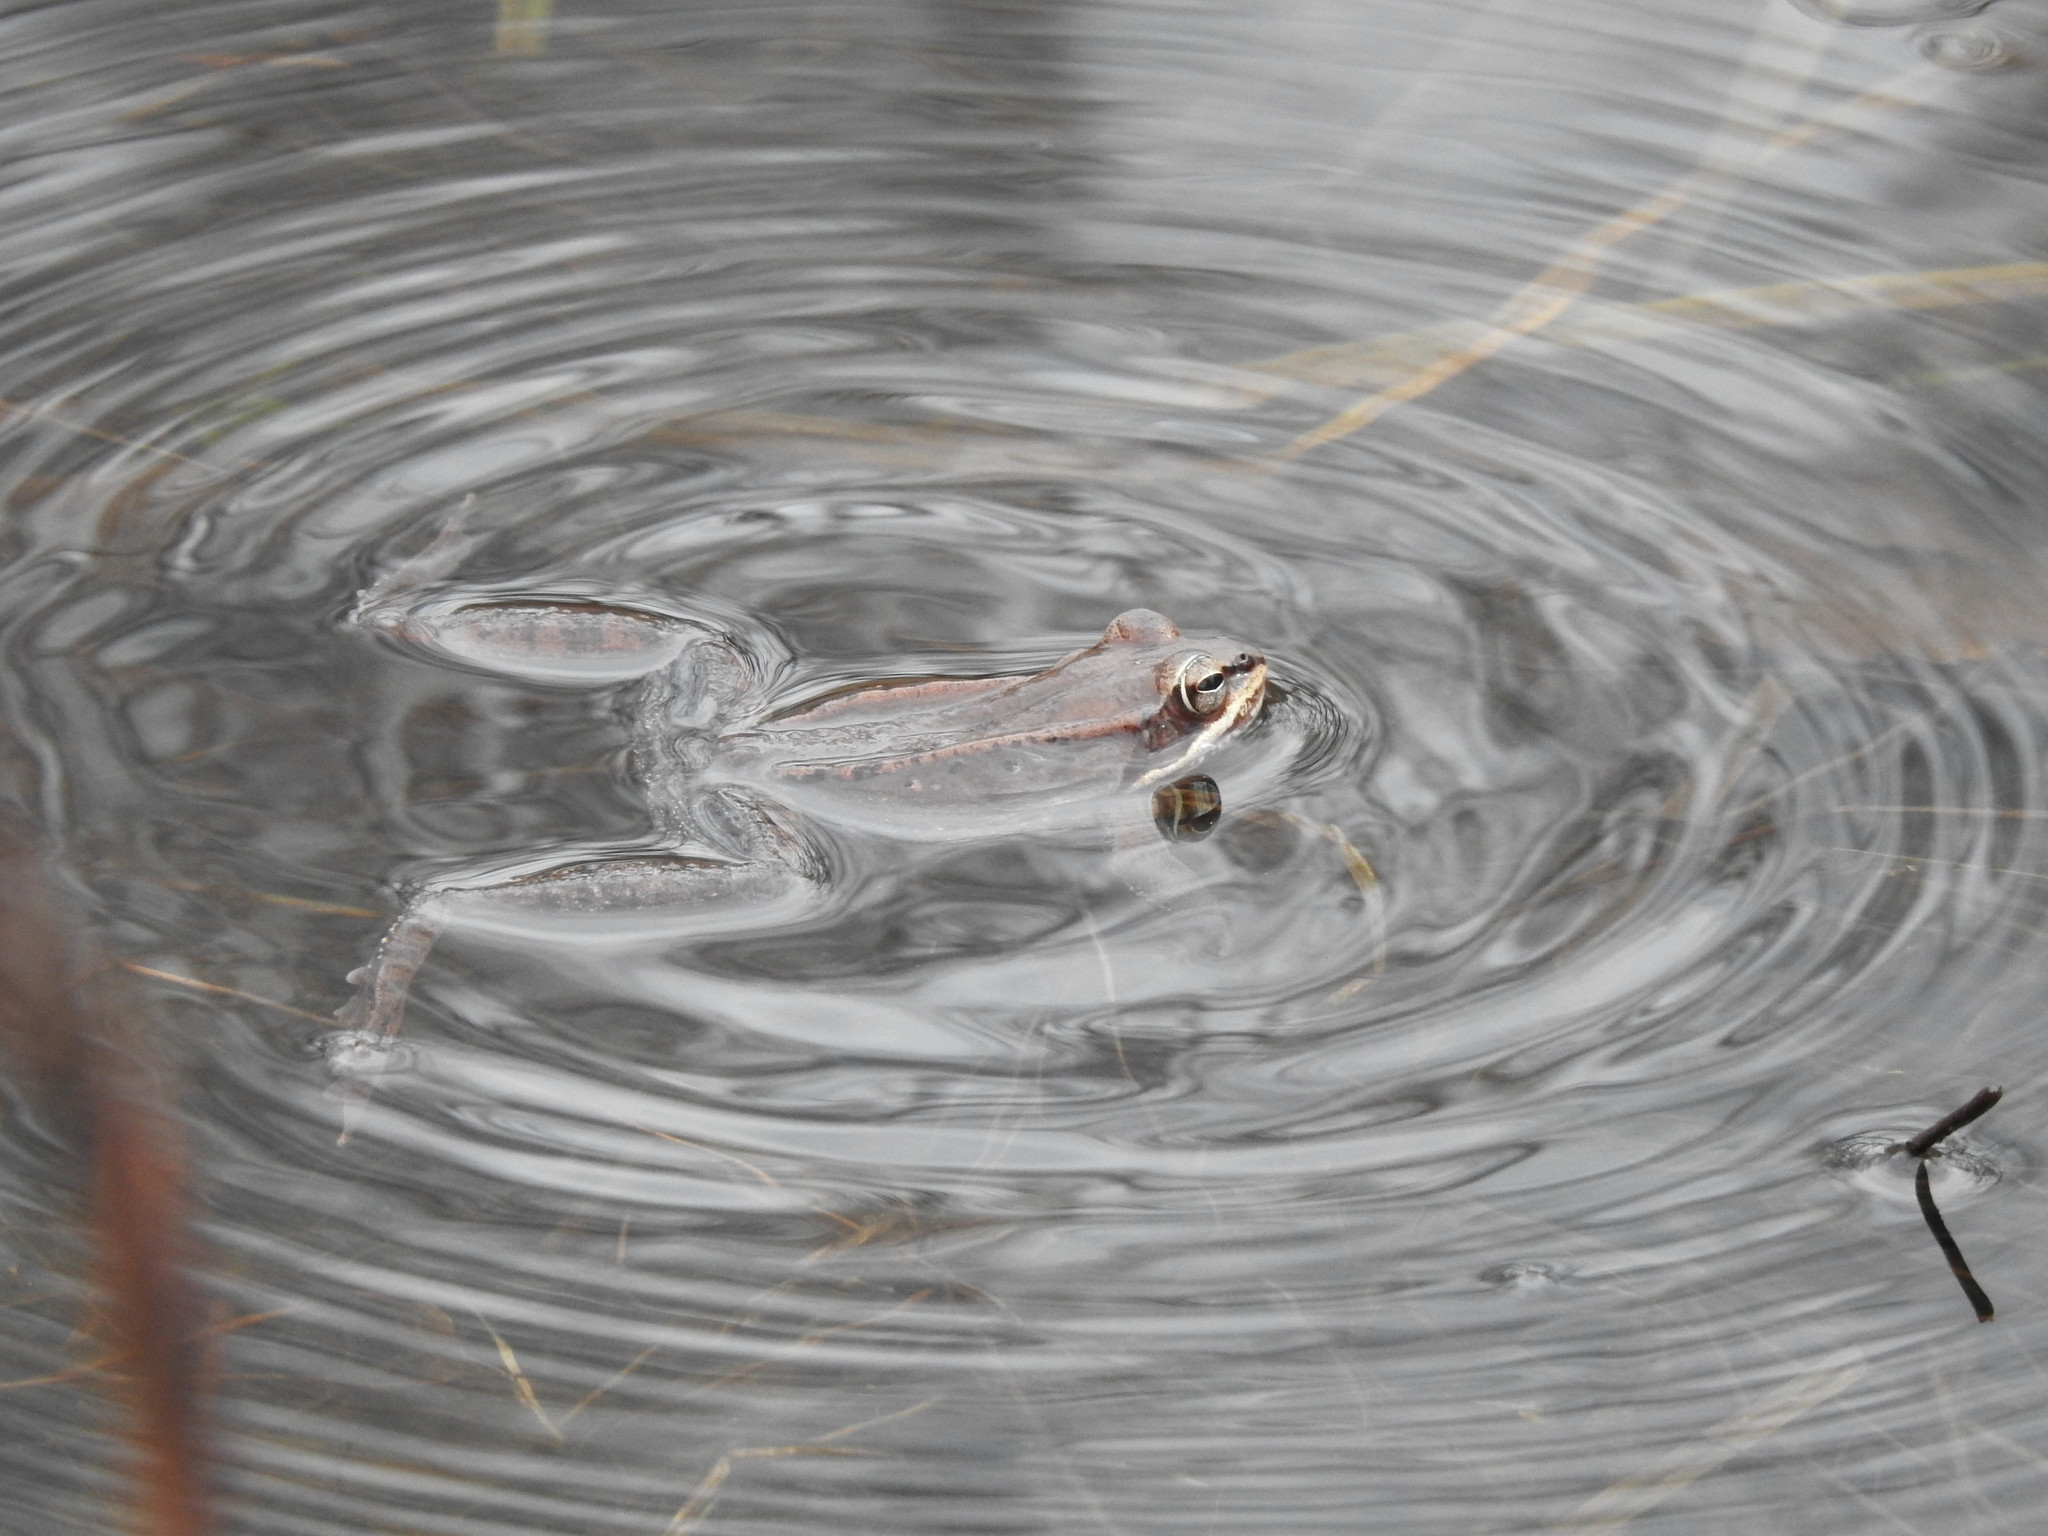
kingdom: Animalia
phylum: Chordata
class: Amphibia
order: Anura
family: Ranidae
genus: Lithobates
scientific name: Lithobates sylvaticus
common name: Wood frog
